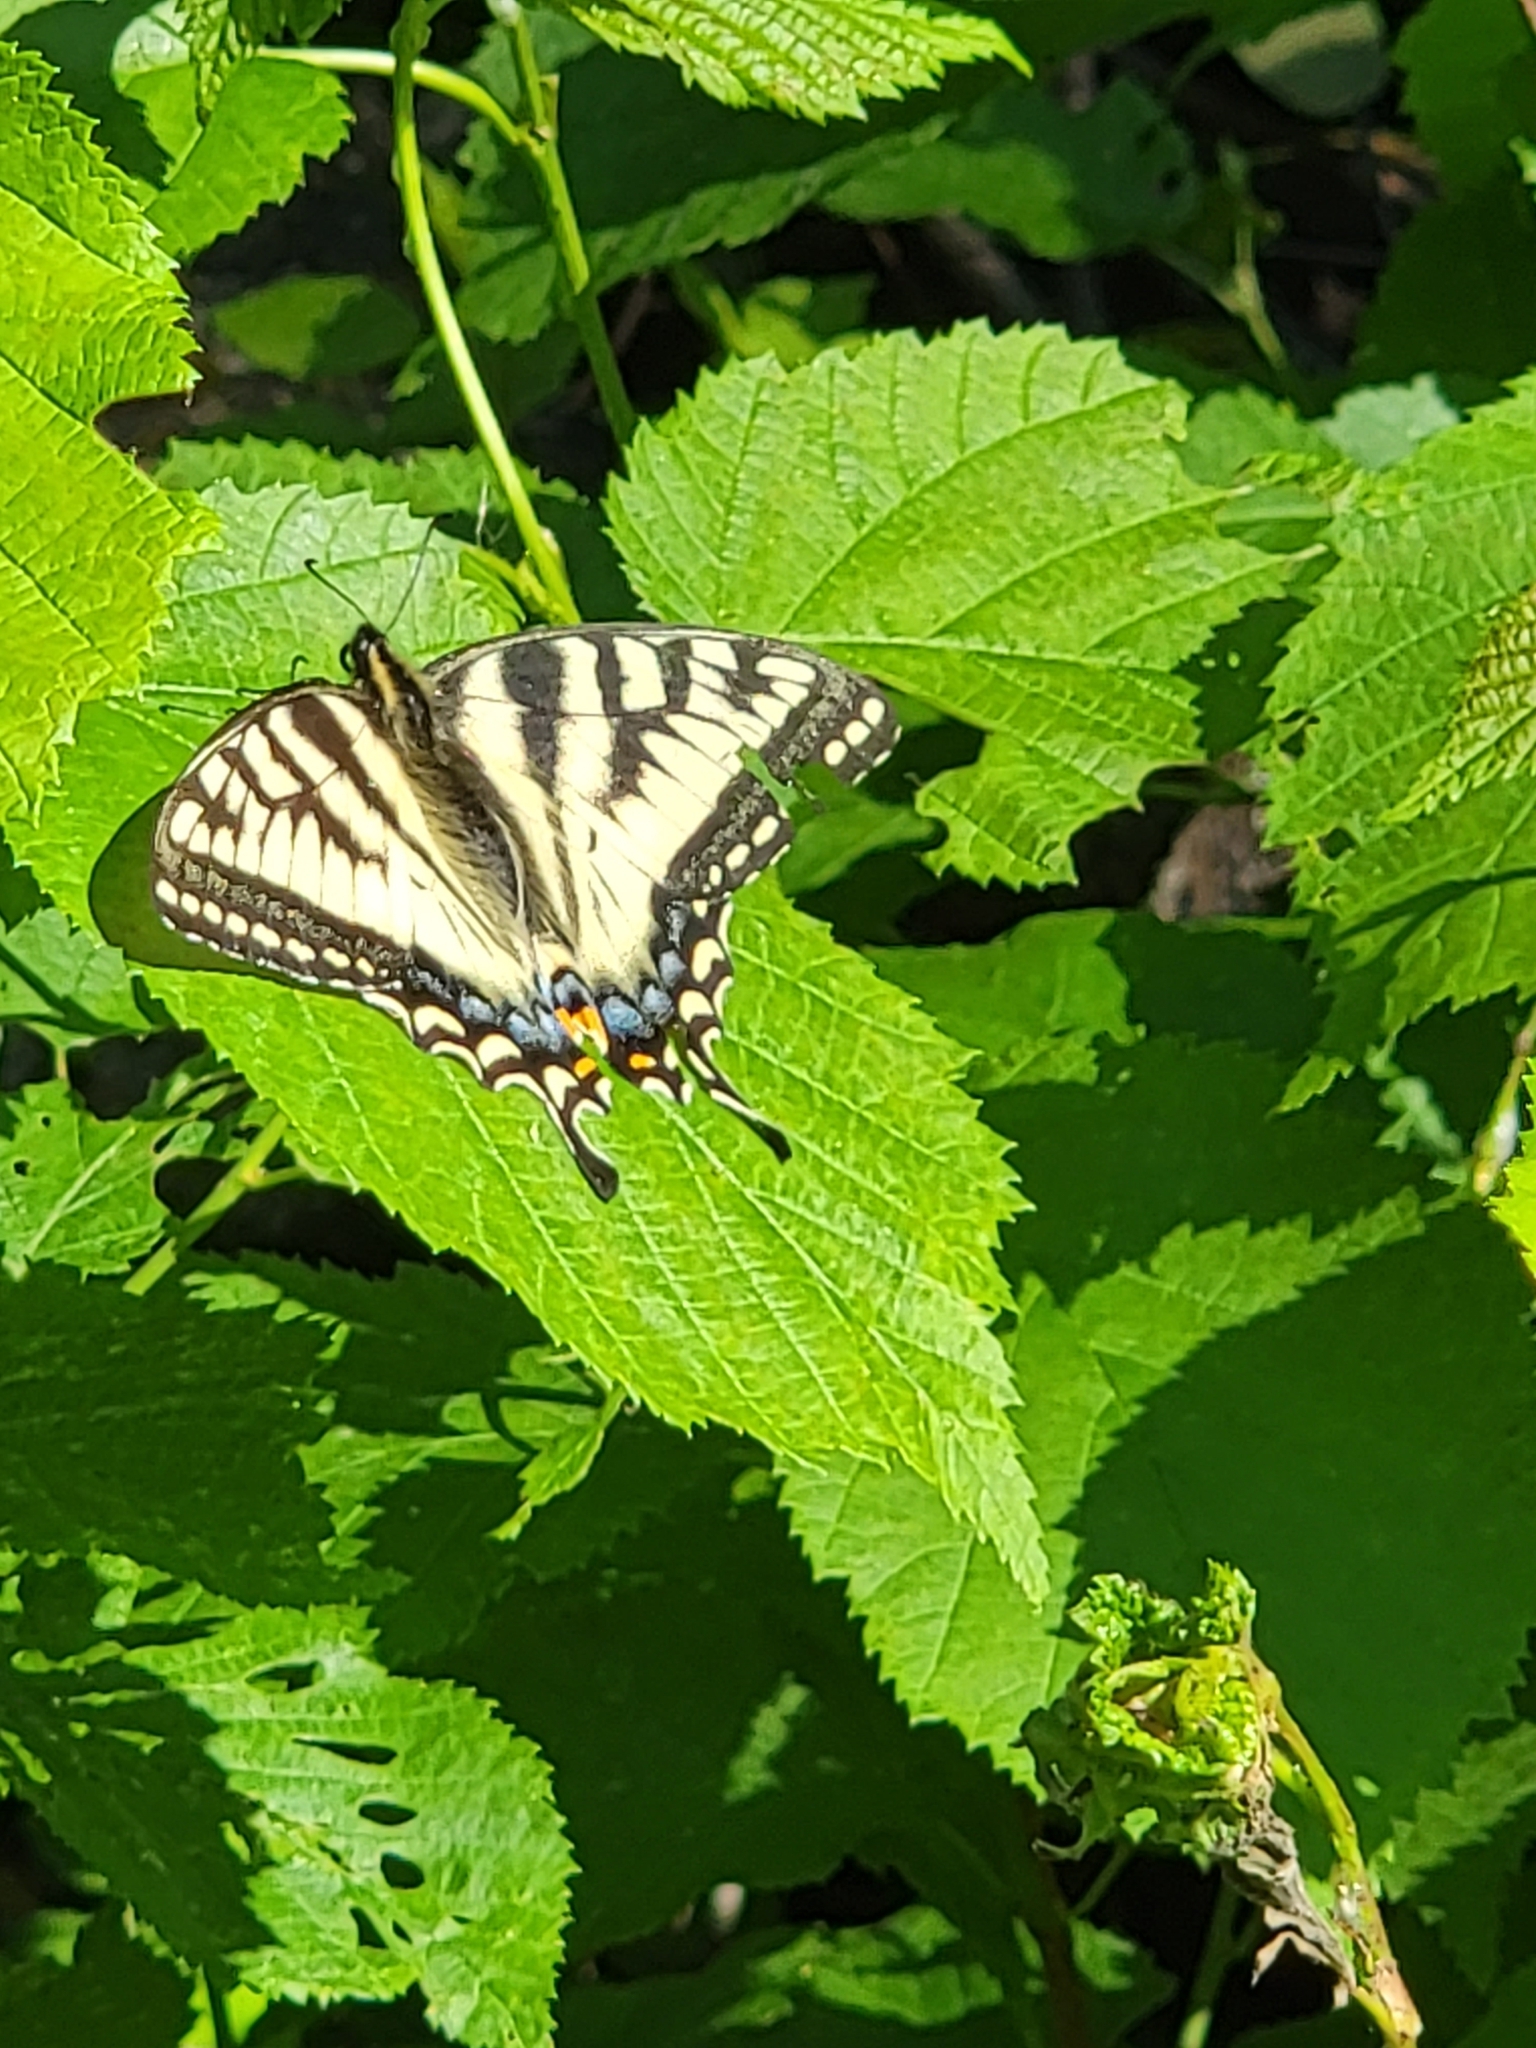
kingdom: Animalia
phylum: Arthropoda
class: Insecta
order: Lepidoptera
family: Papilionidae
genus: Papilio
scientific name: Papilio canadensis
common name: Canadian tiger swallowtail
